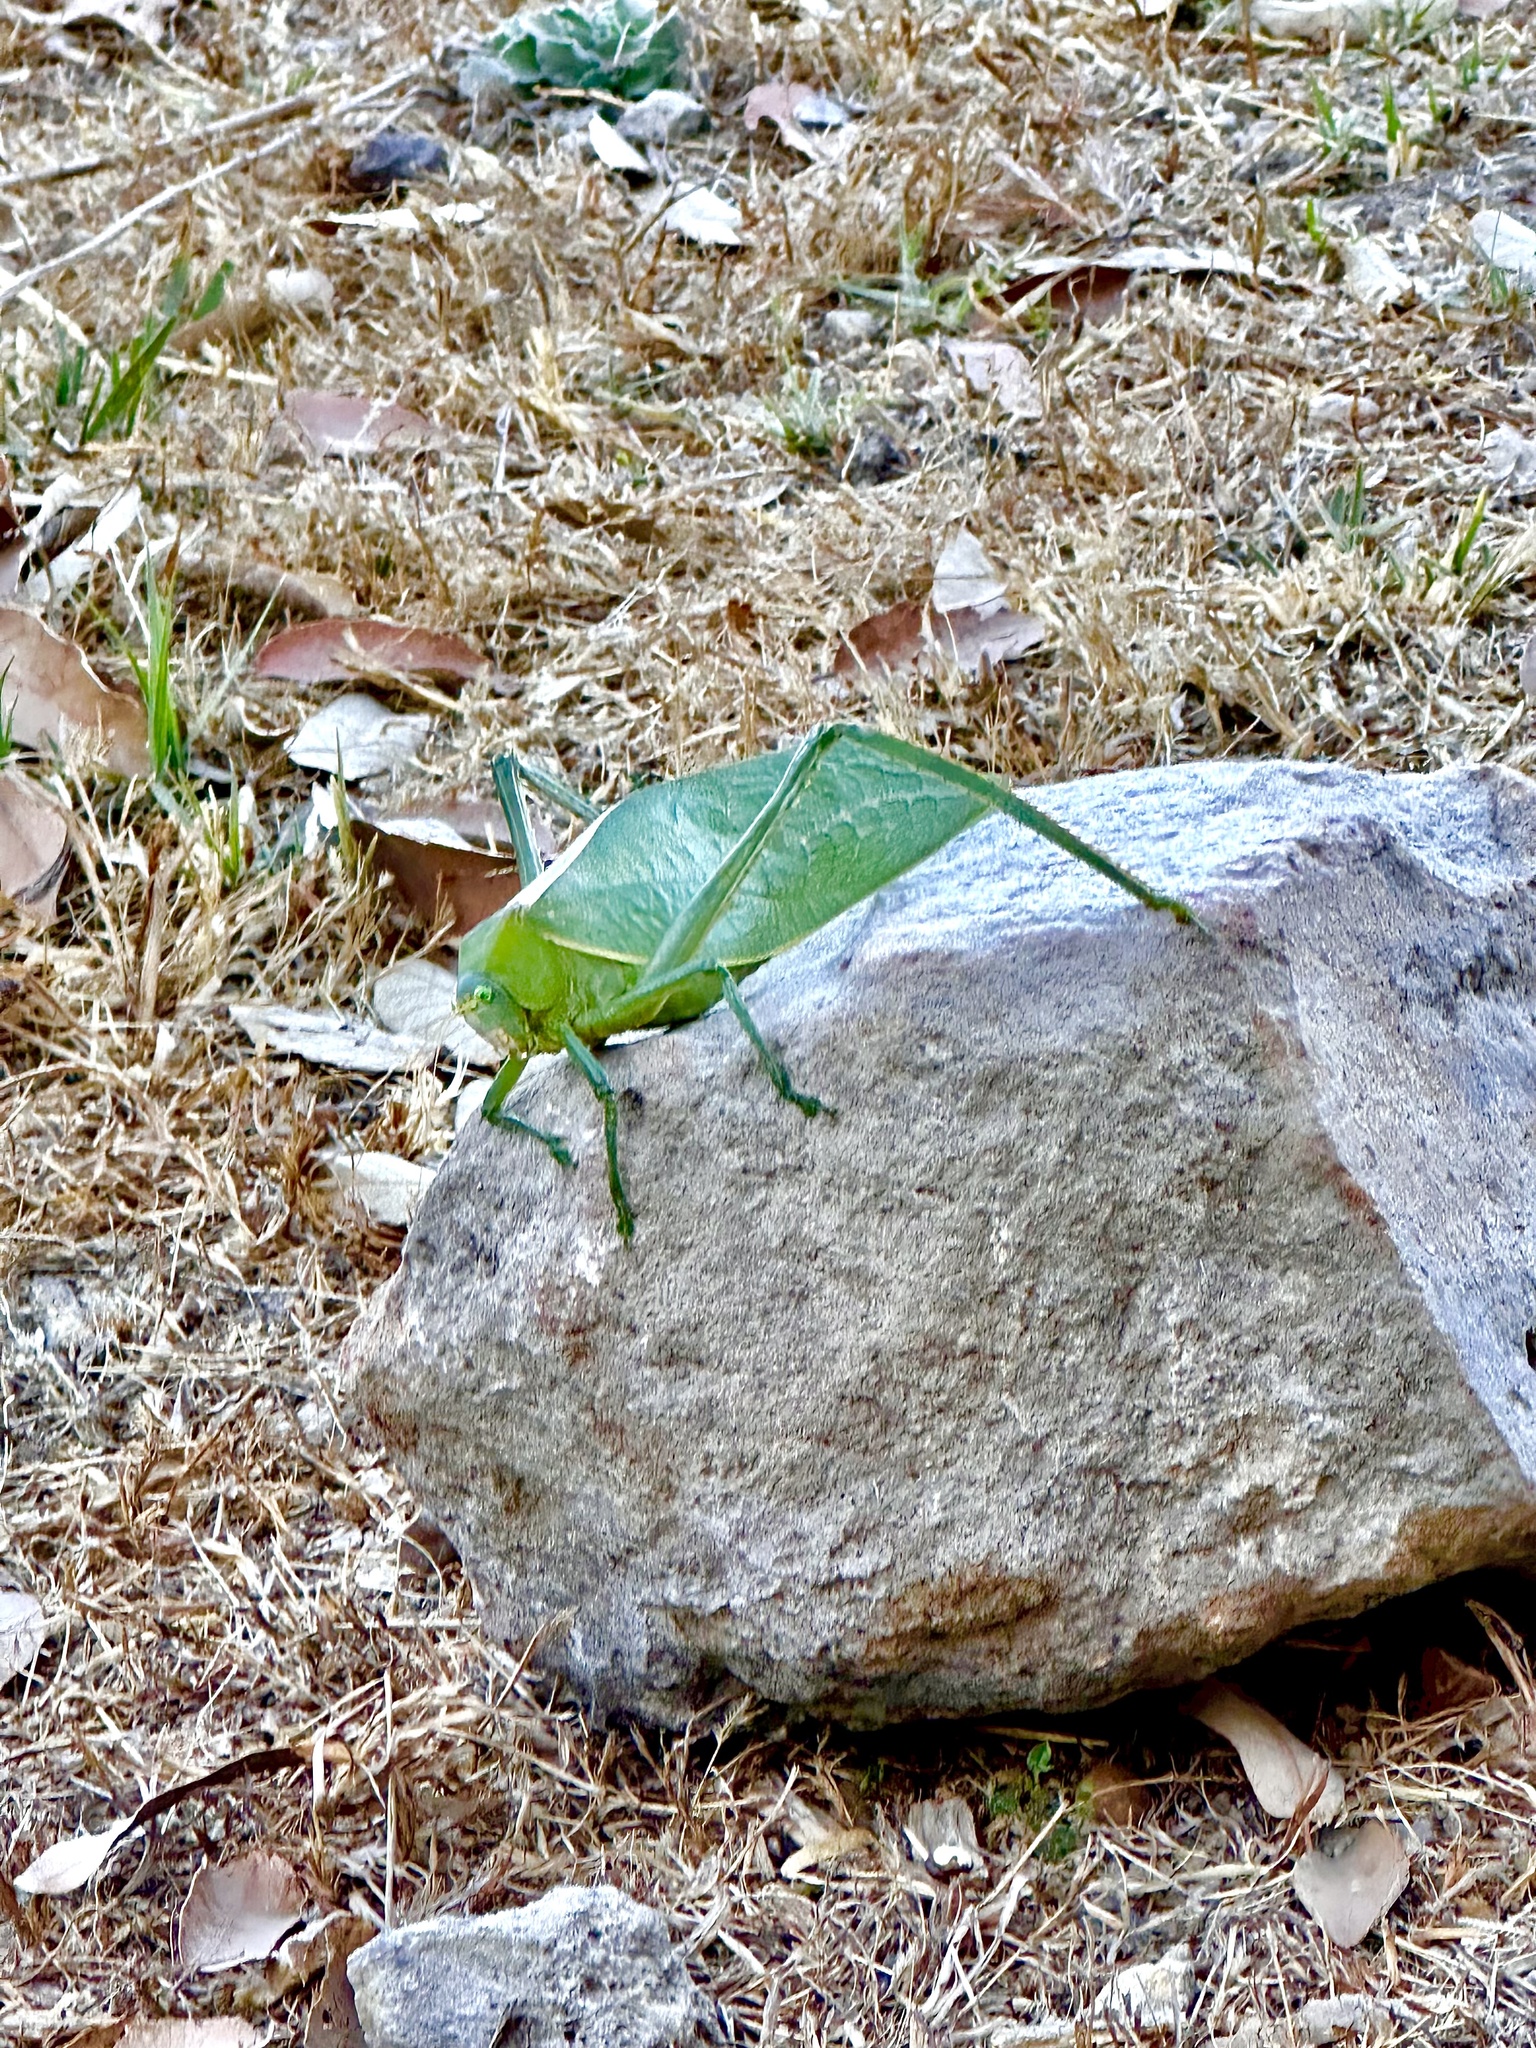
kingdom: Animalia
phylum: Arthropoda
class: Insecta
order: Orthoptera
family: Tettigoniidae
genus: Stilpnochlora
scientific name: Stilpnochlora azteca
